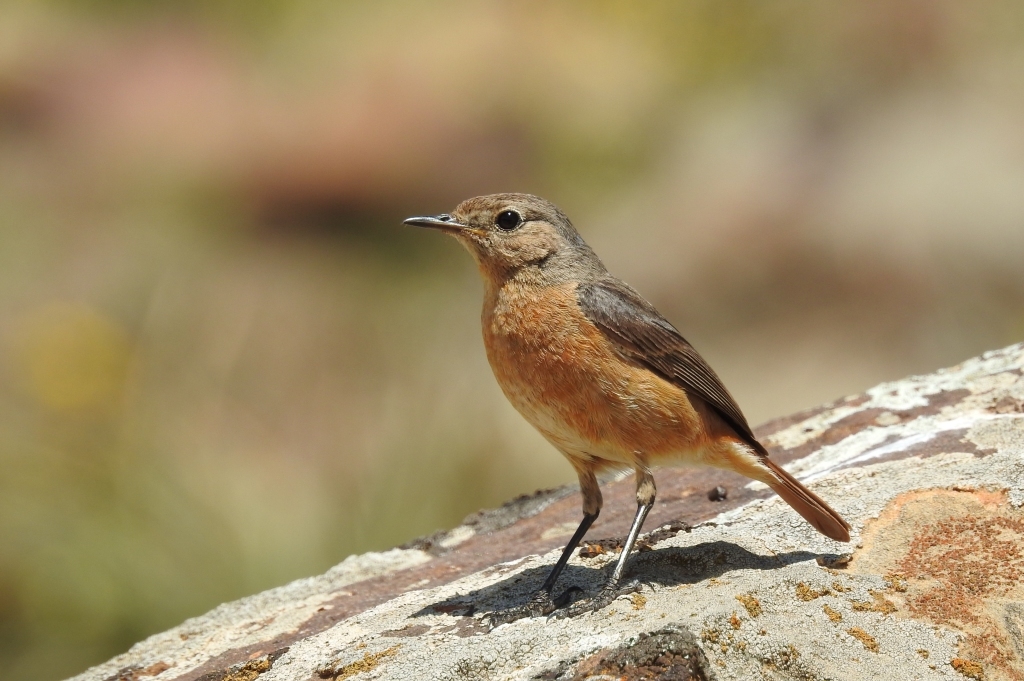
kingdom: Animalia
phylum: Chordata
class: Aves
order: Passeriformes
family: Muscicapidae
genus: Phoenicurus
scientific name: Phoenicurus moussieri
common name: Moussier's redstart
